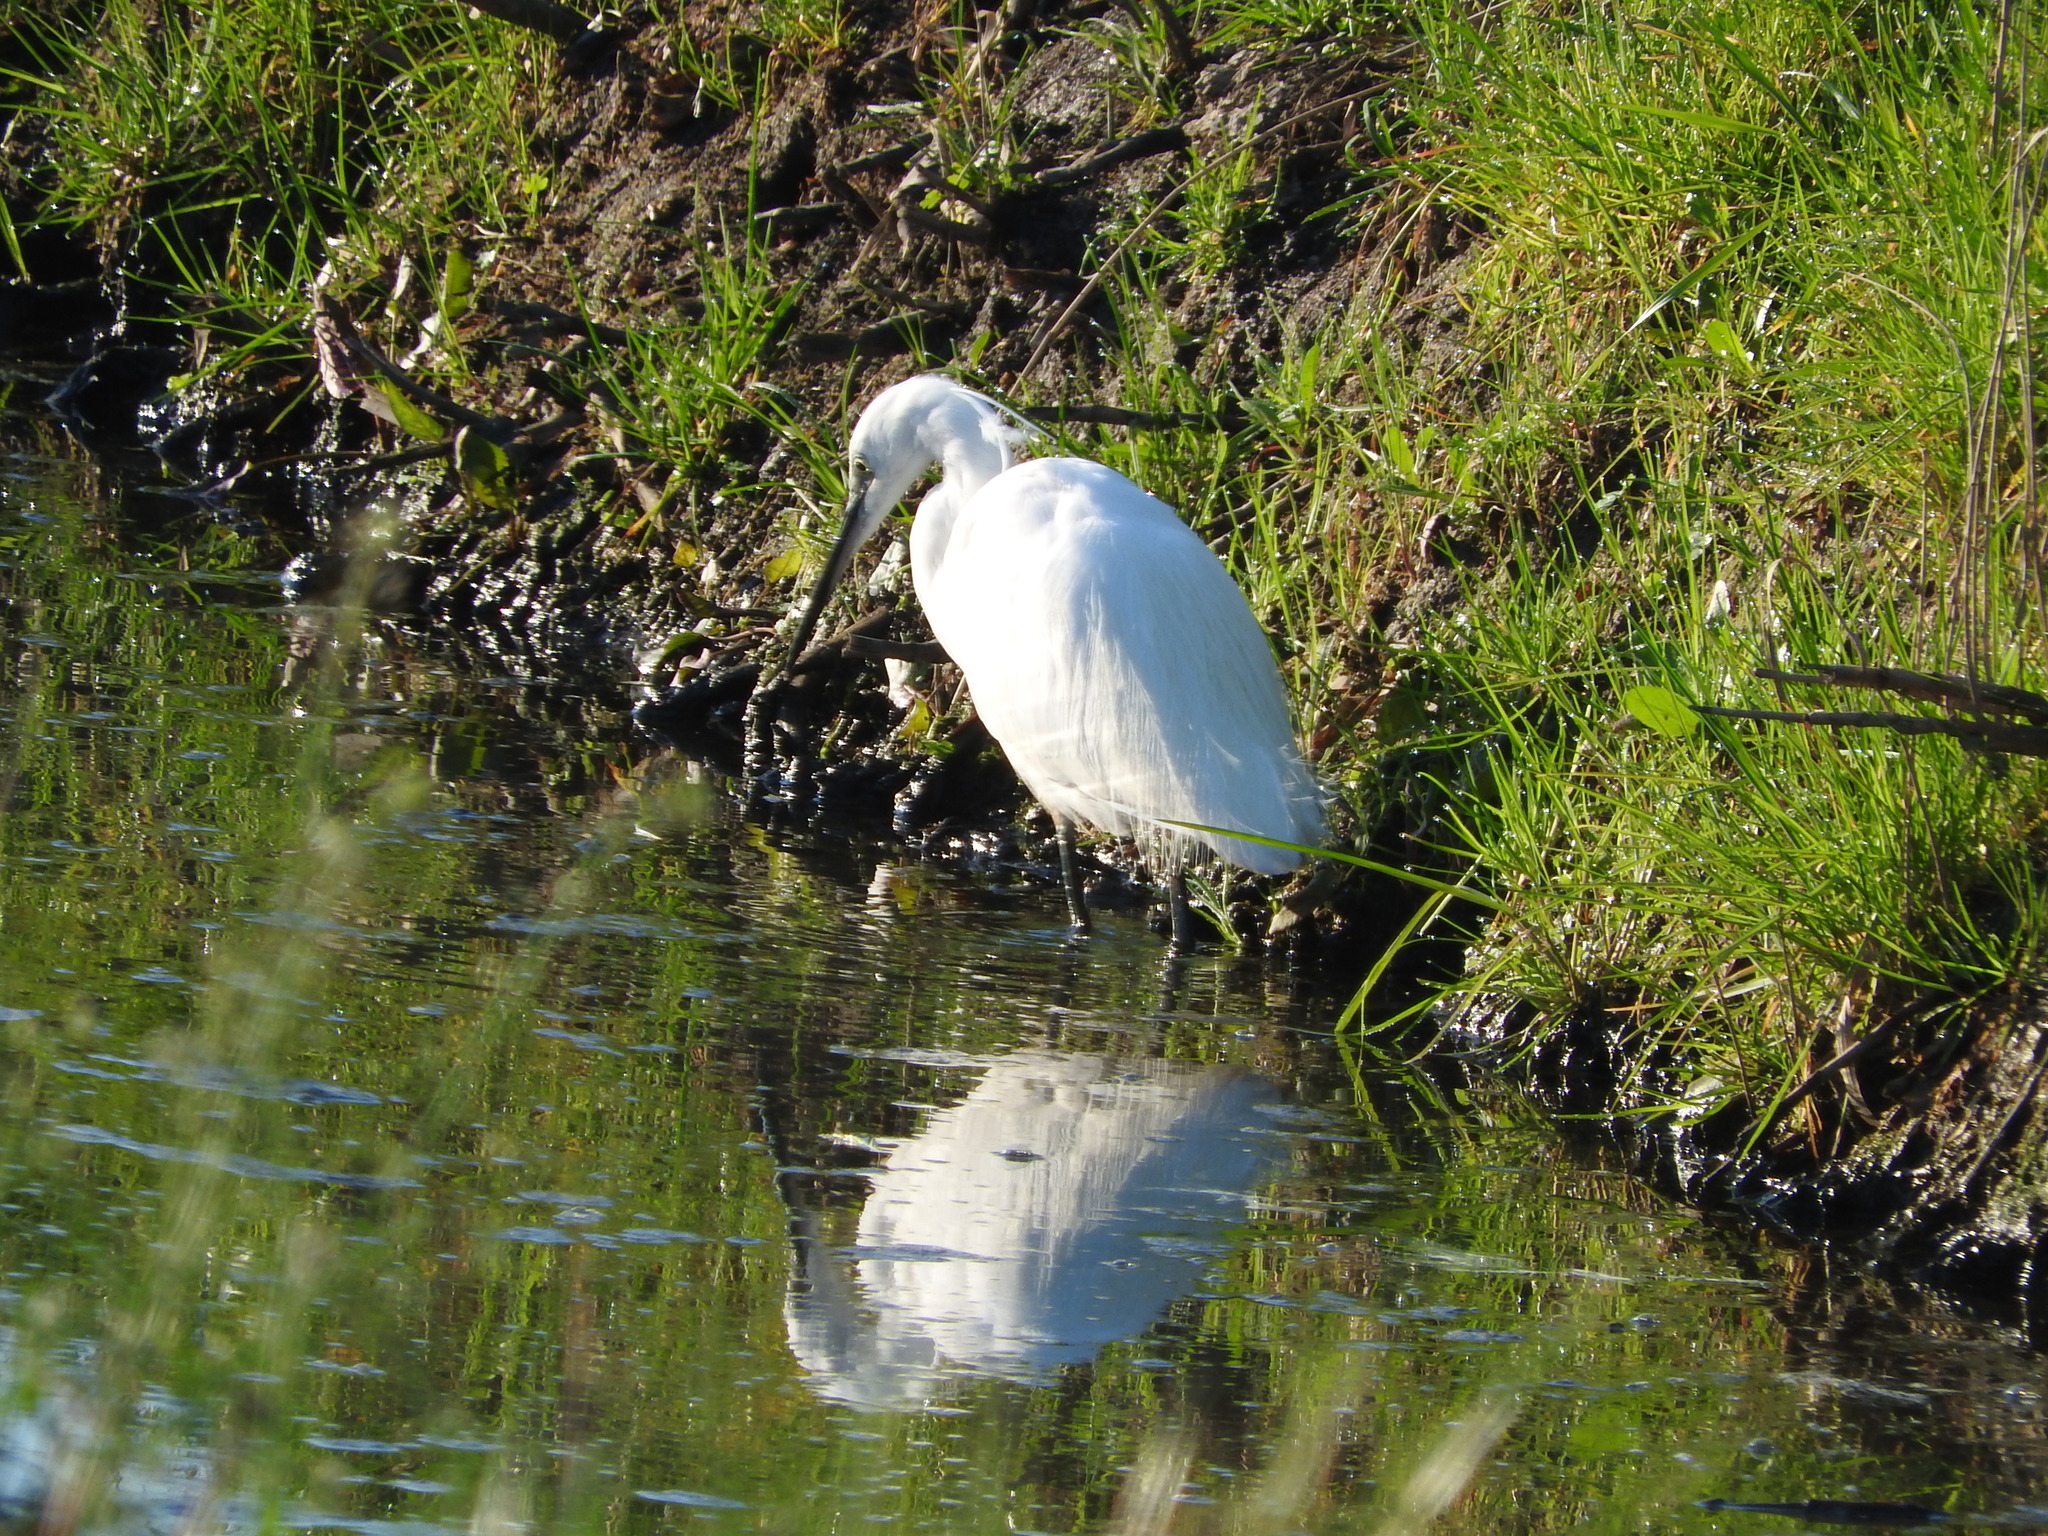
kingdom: Animalia
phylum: Chordata
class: Aves
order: Pelecaniformes
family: Ardeidae
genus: Egretta
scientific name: Egretta garzetta
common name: Little egret
